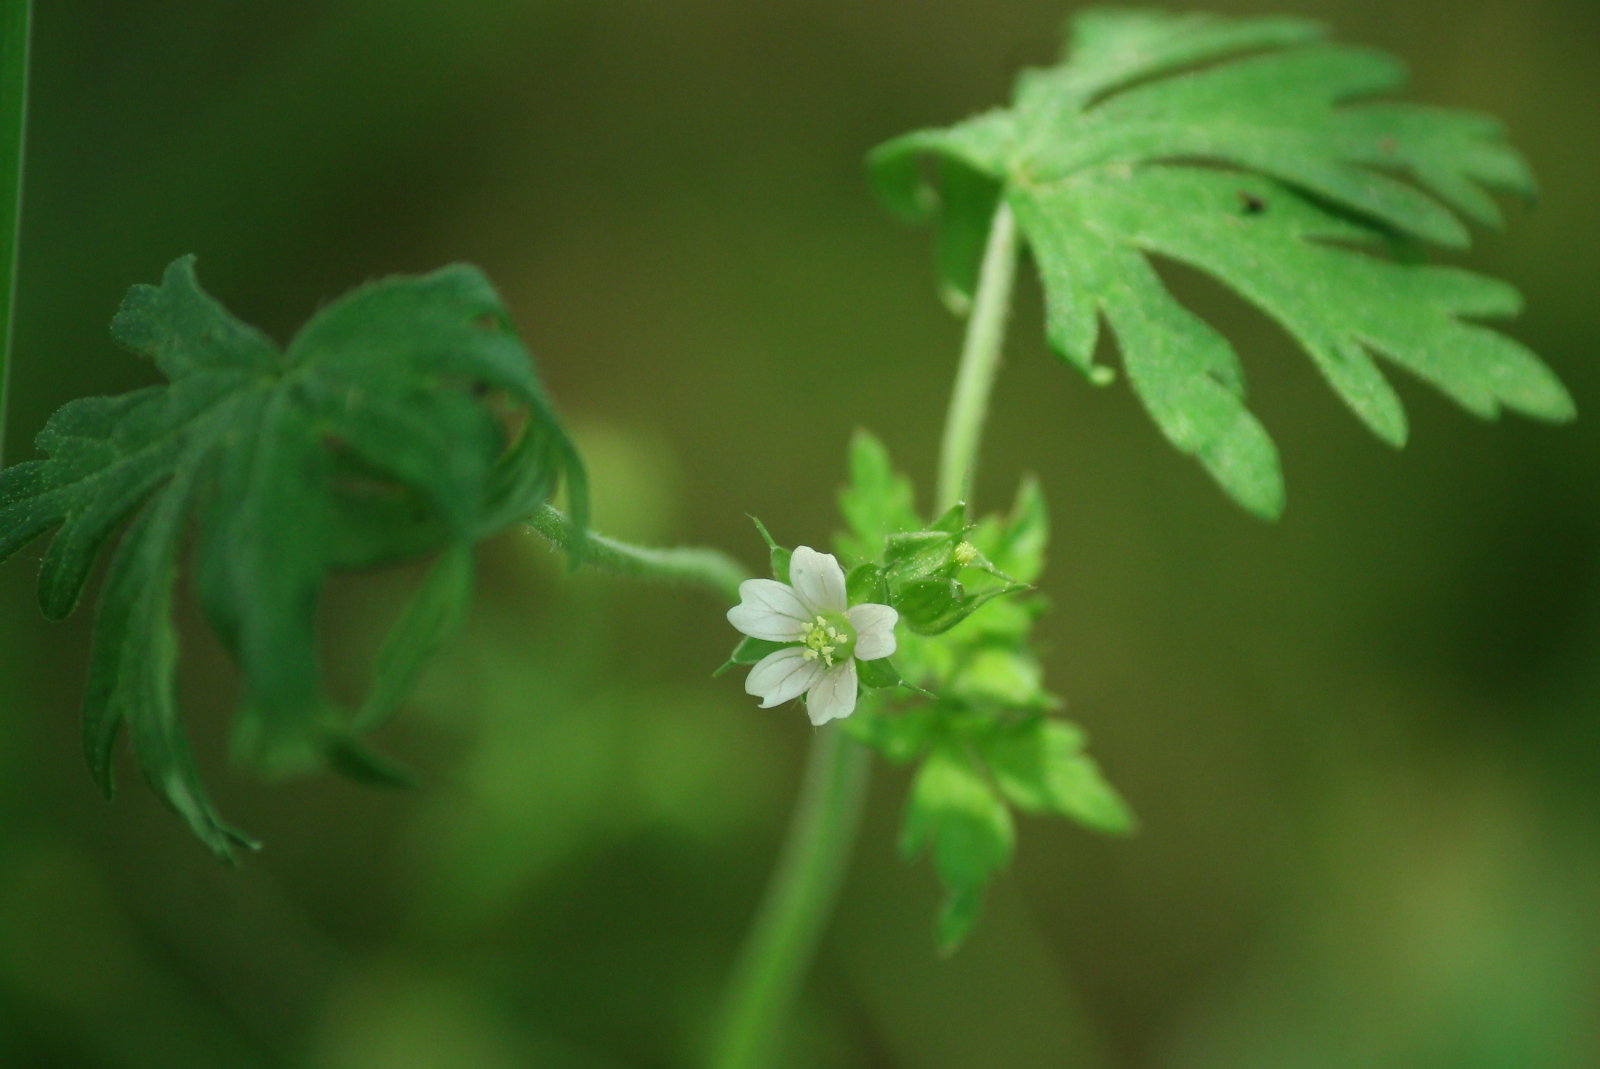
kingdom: Plantae
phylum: Tracheophyta
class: Magnoliopsida
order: Geraniales
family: Geraniaceae
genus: Geranium
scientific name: Geranium carolinianum
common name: Carolina crane's-bill
